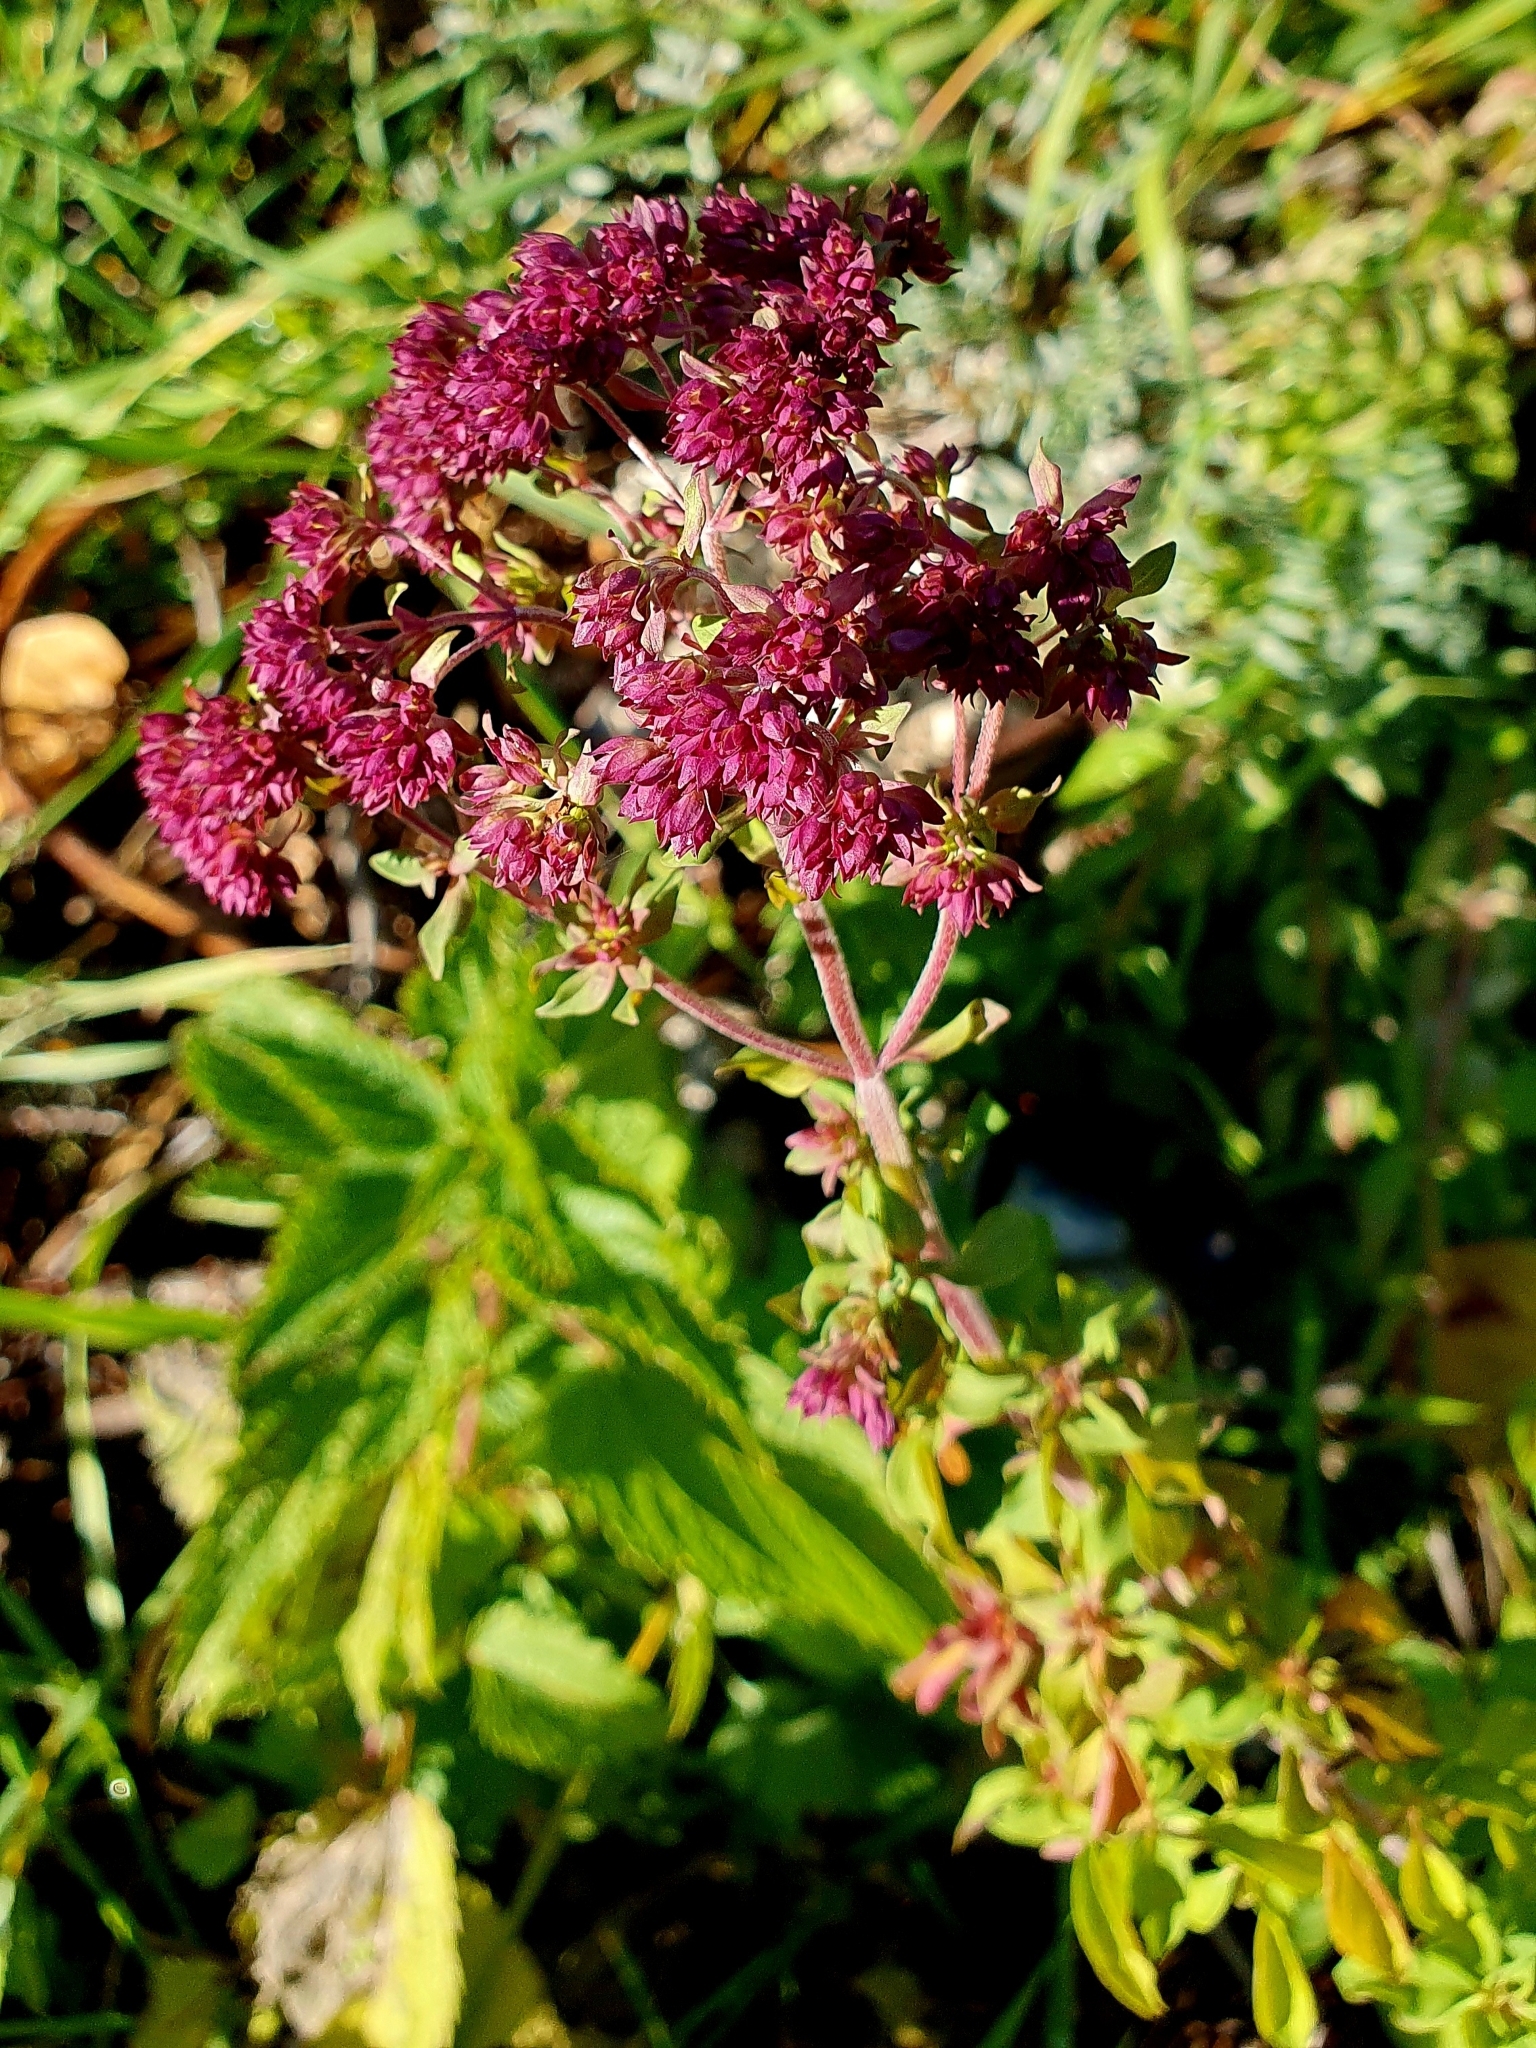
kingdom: Plantae
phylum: Tracheophyta
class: Magnoliopsida
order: Lamiales
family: Lamiaceae
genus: Origanum
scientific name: Origanum vulgare
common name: Wild marjoram
